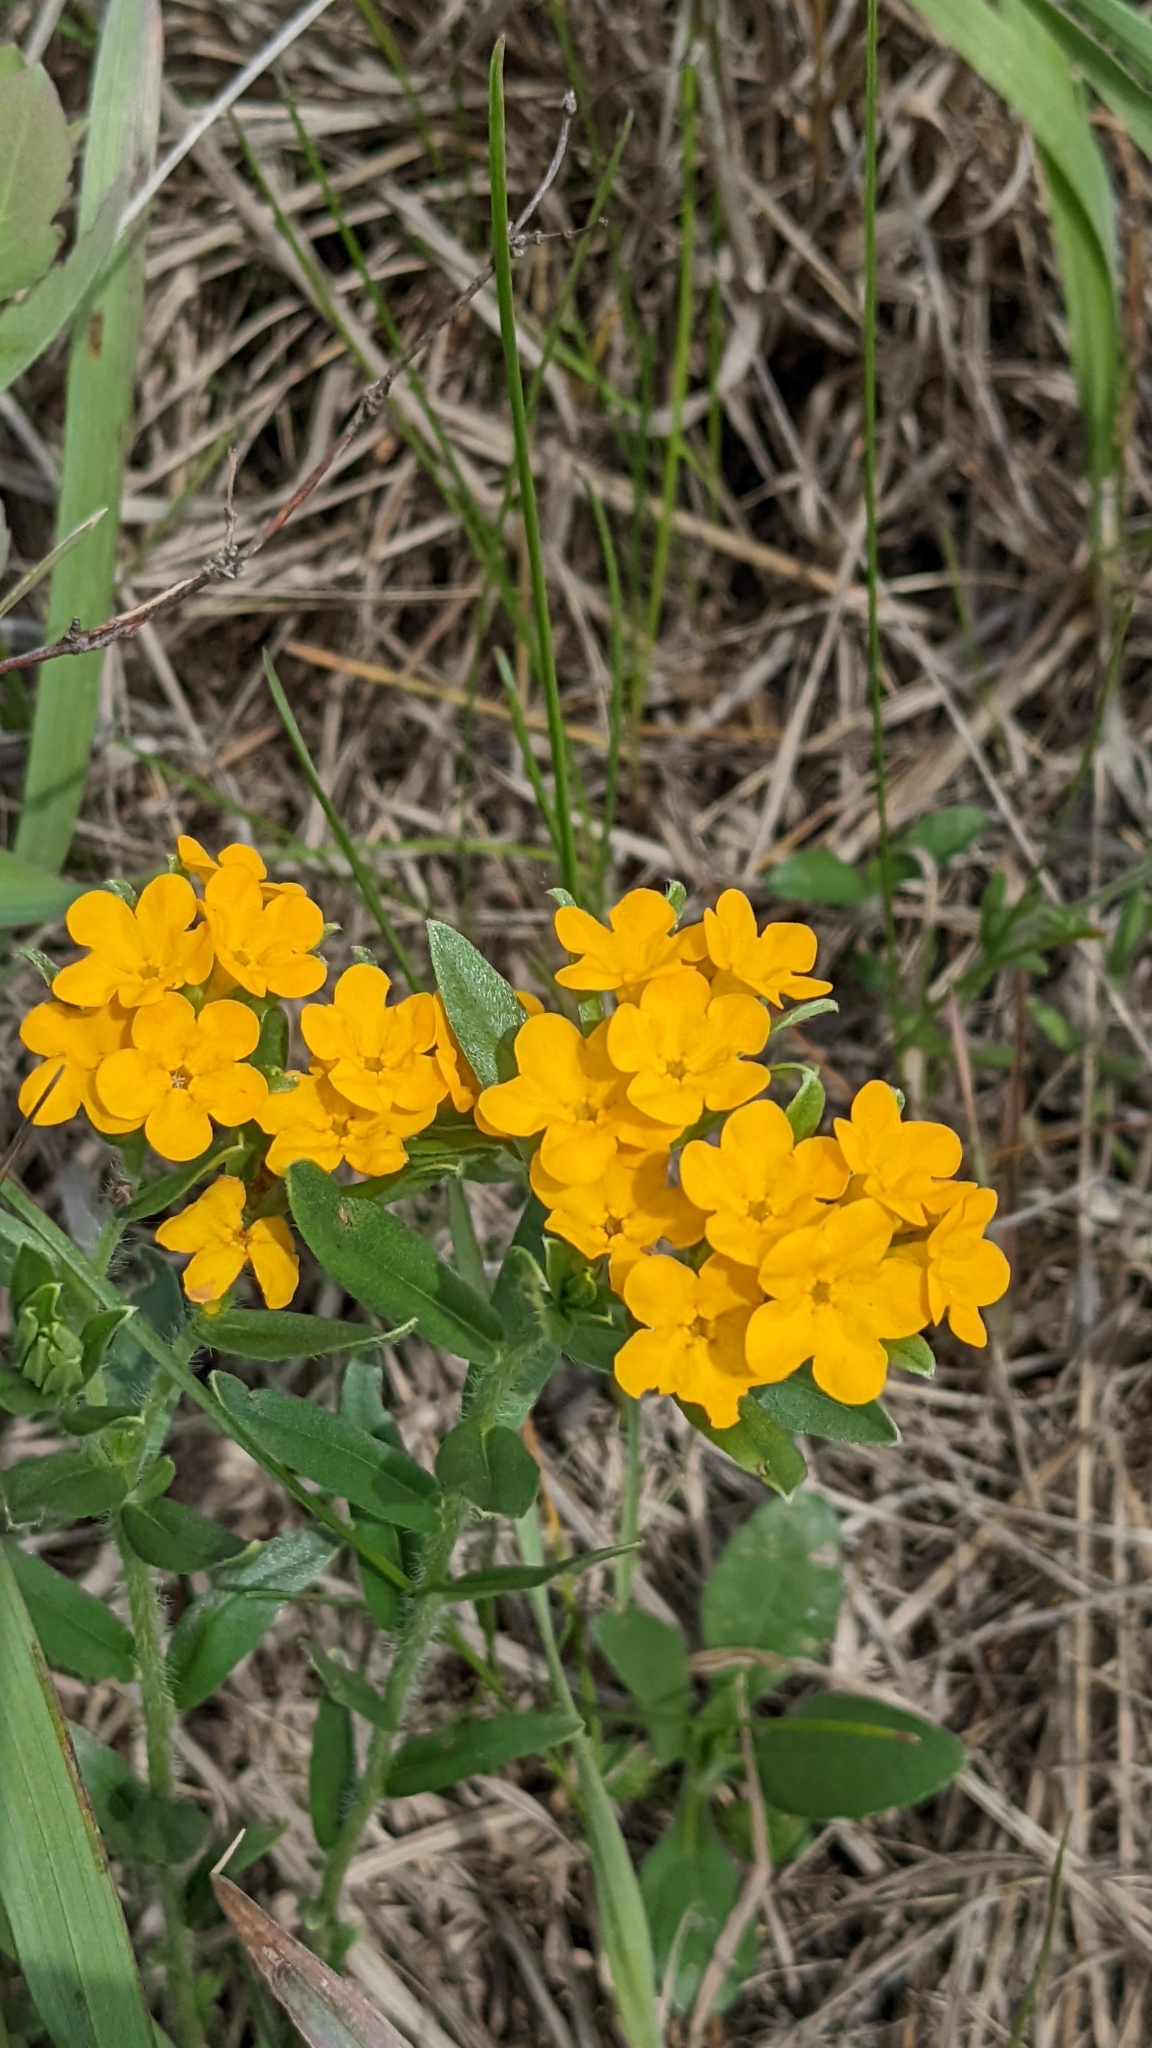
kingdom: Plantae
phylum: Tracheophyta
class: Magnoliopsida
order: Boraginales
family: Boraginaceae
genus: Lithospermum
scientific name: Lithospermum canescens
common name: Hoary puccoon
